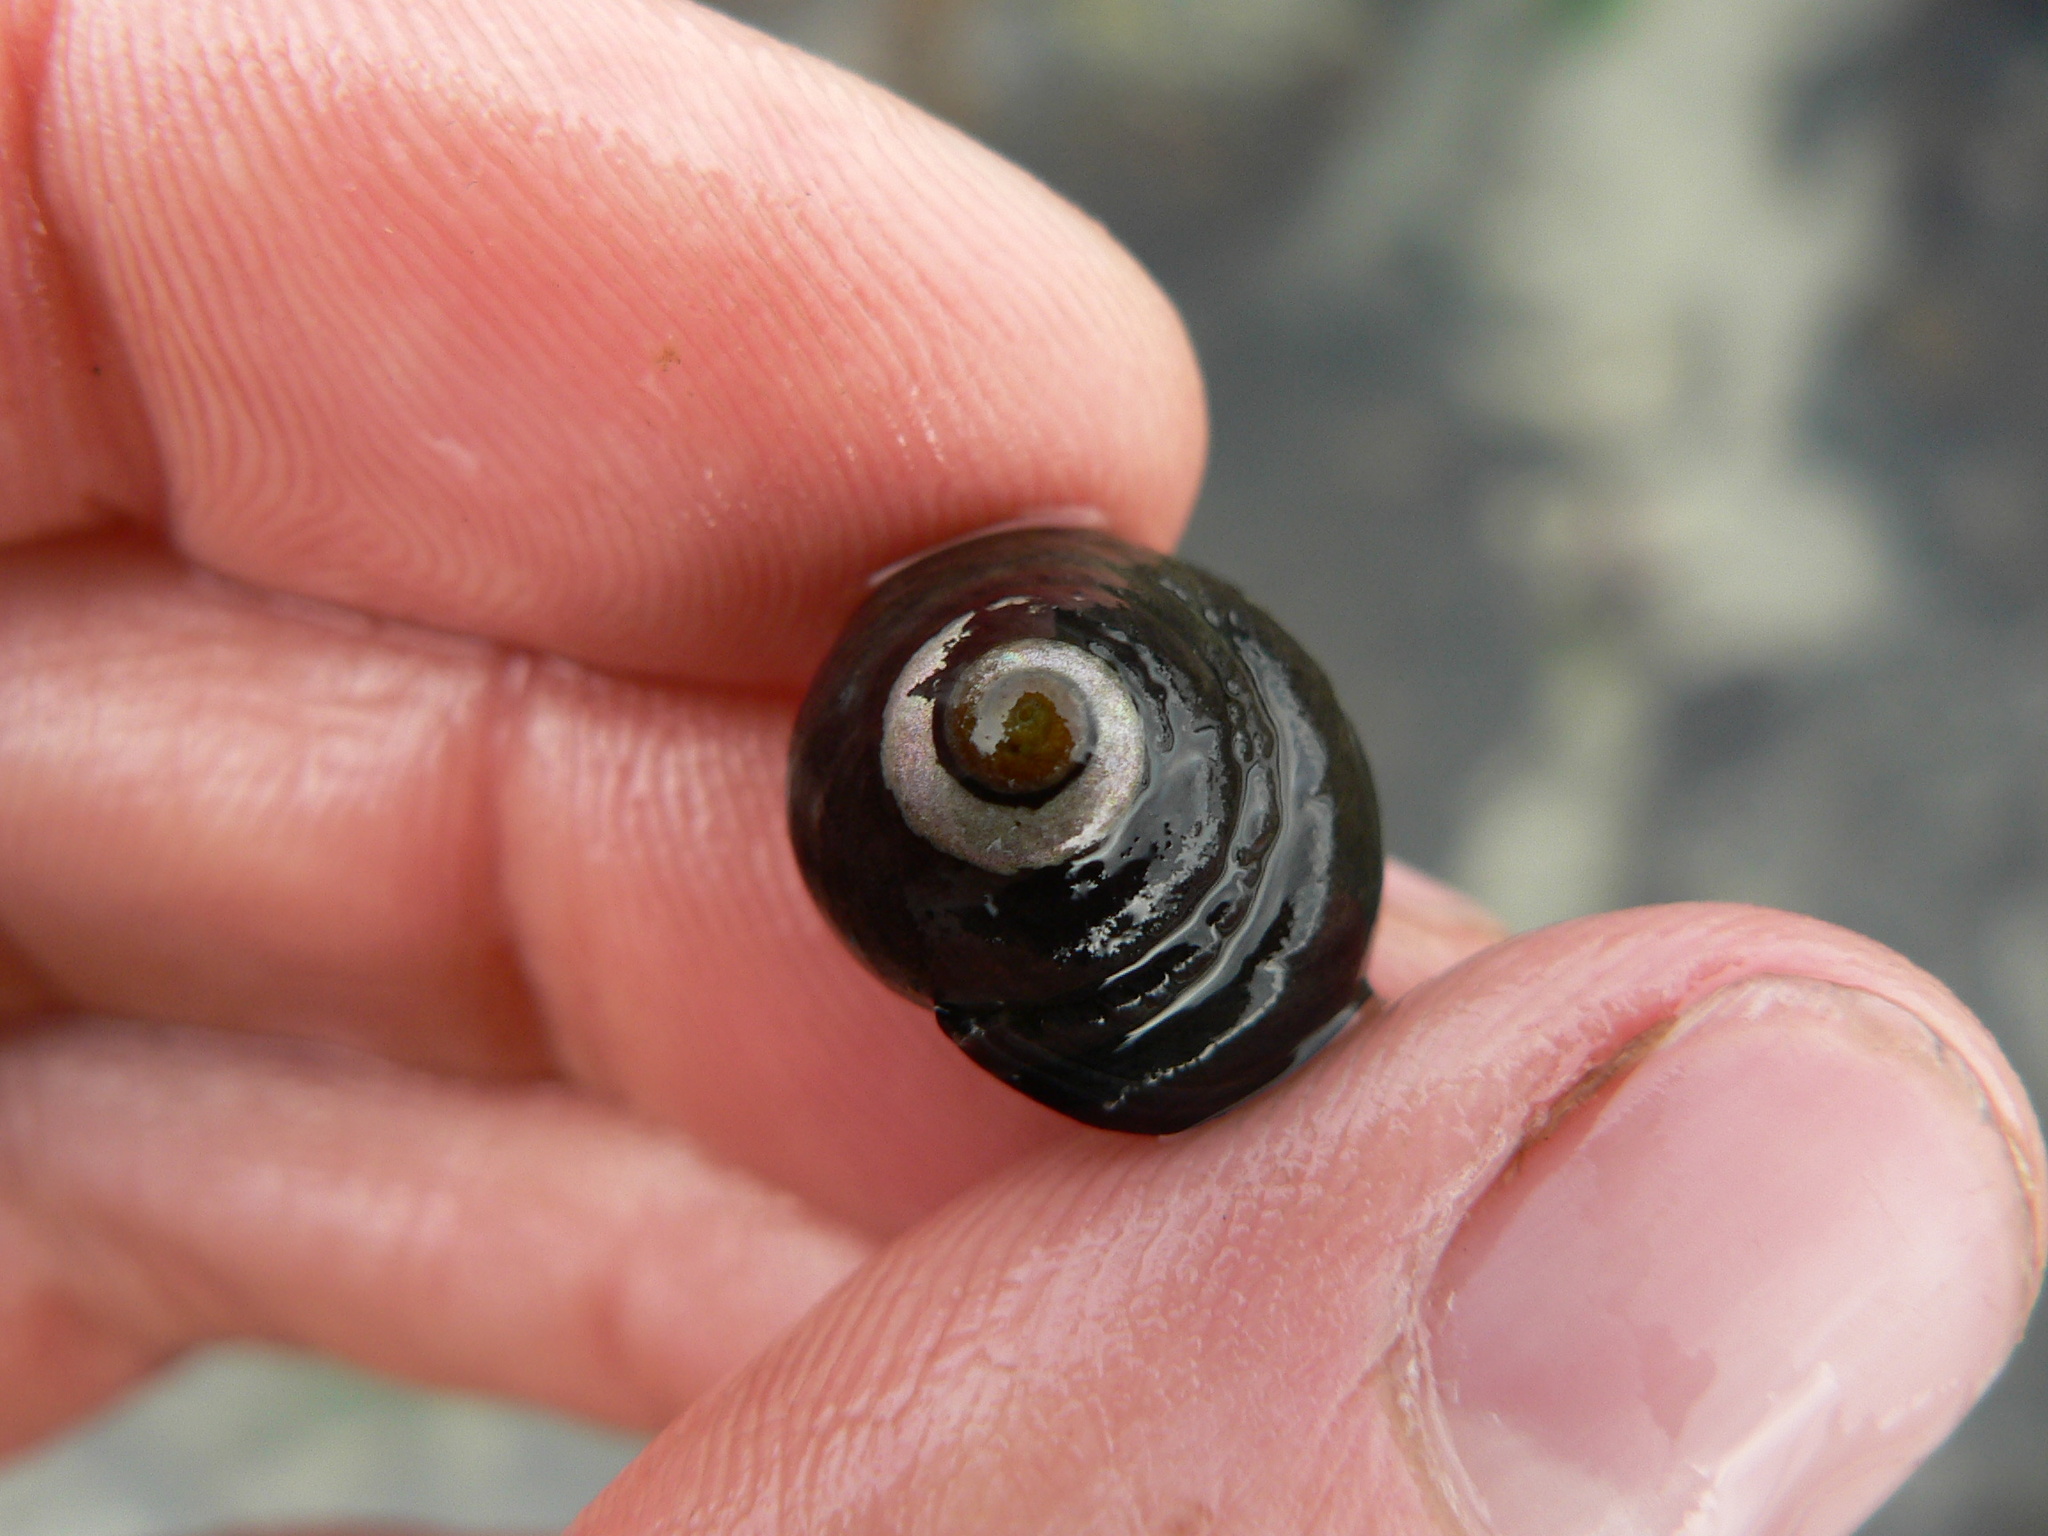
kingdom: Animalia
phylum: Mollusca
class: Gastropoda
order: Trochida
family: Tegulidae
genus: Tegula
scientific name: Tegula funebralis
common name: Black tegula
